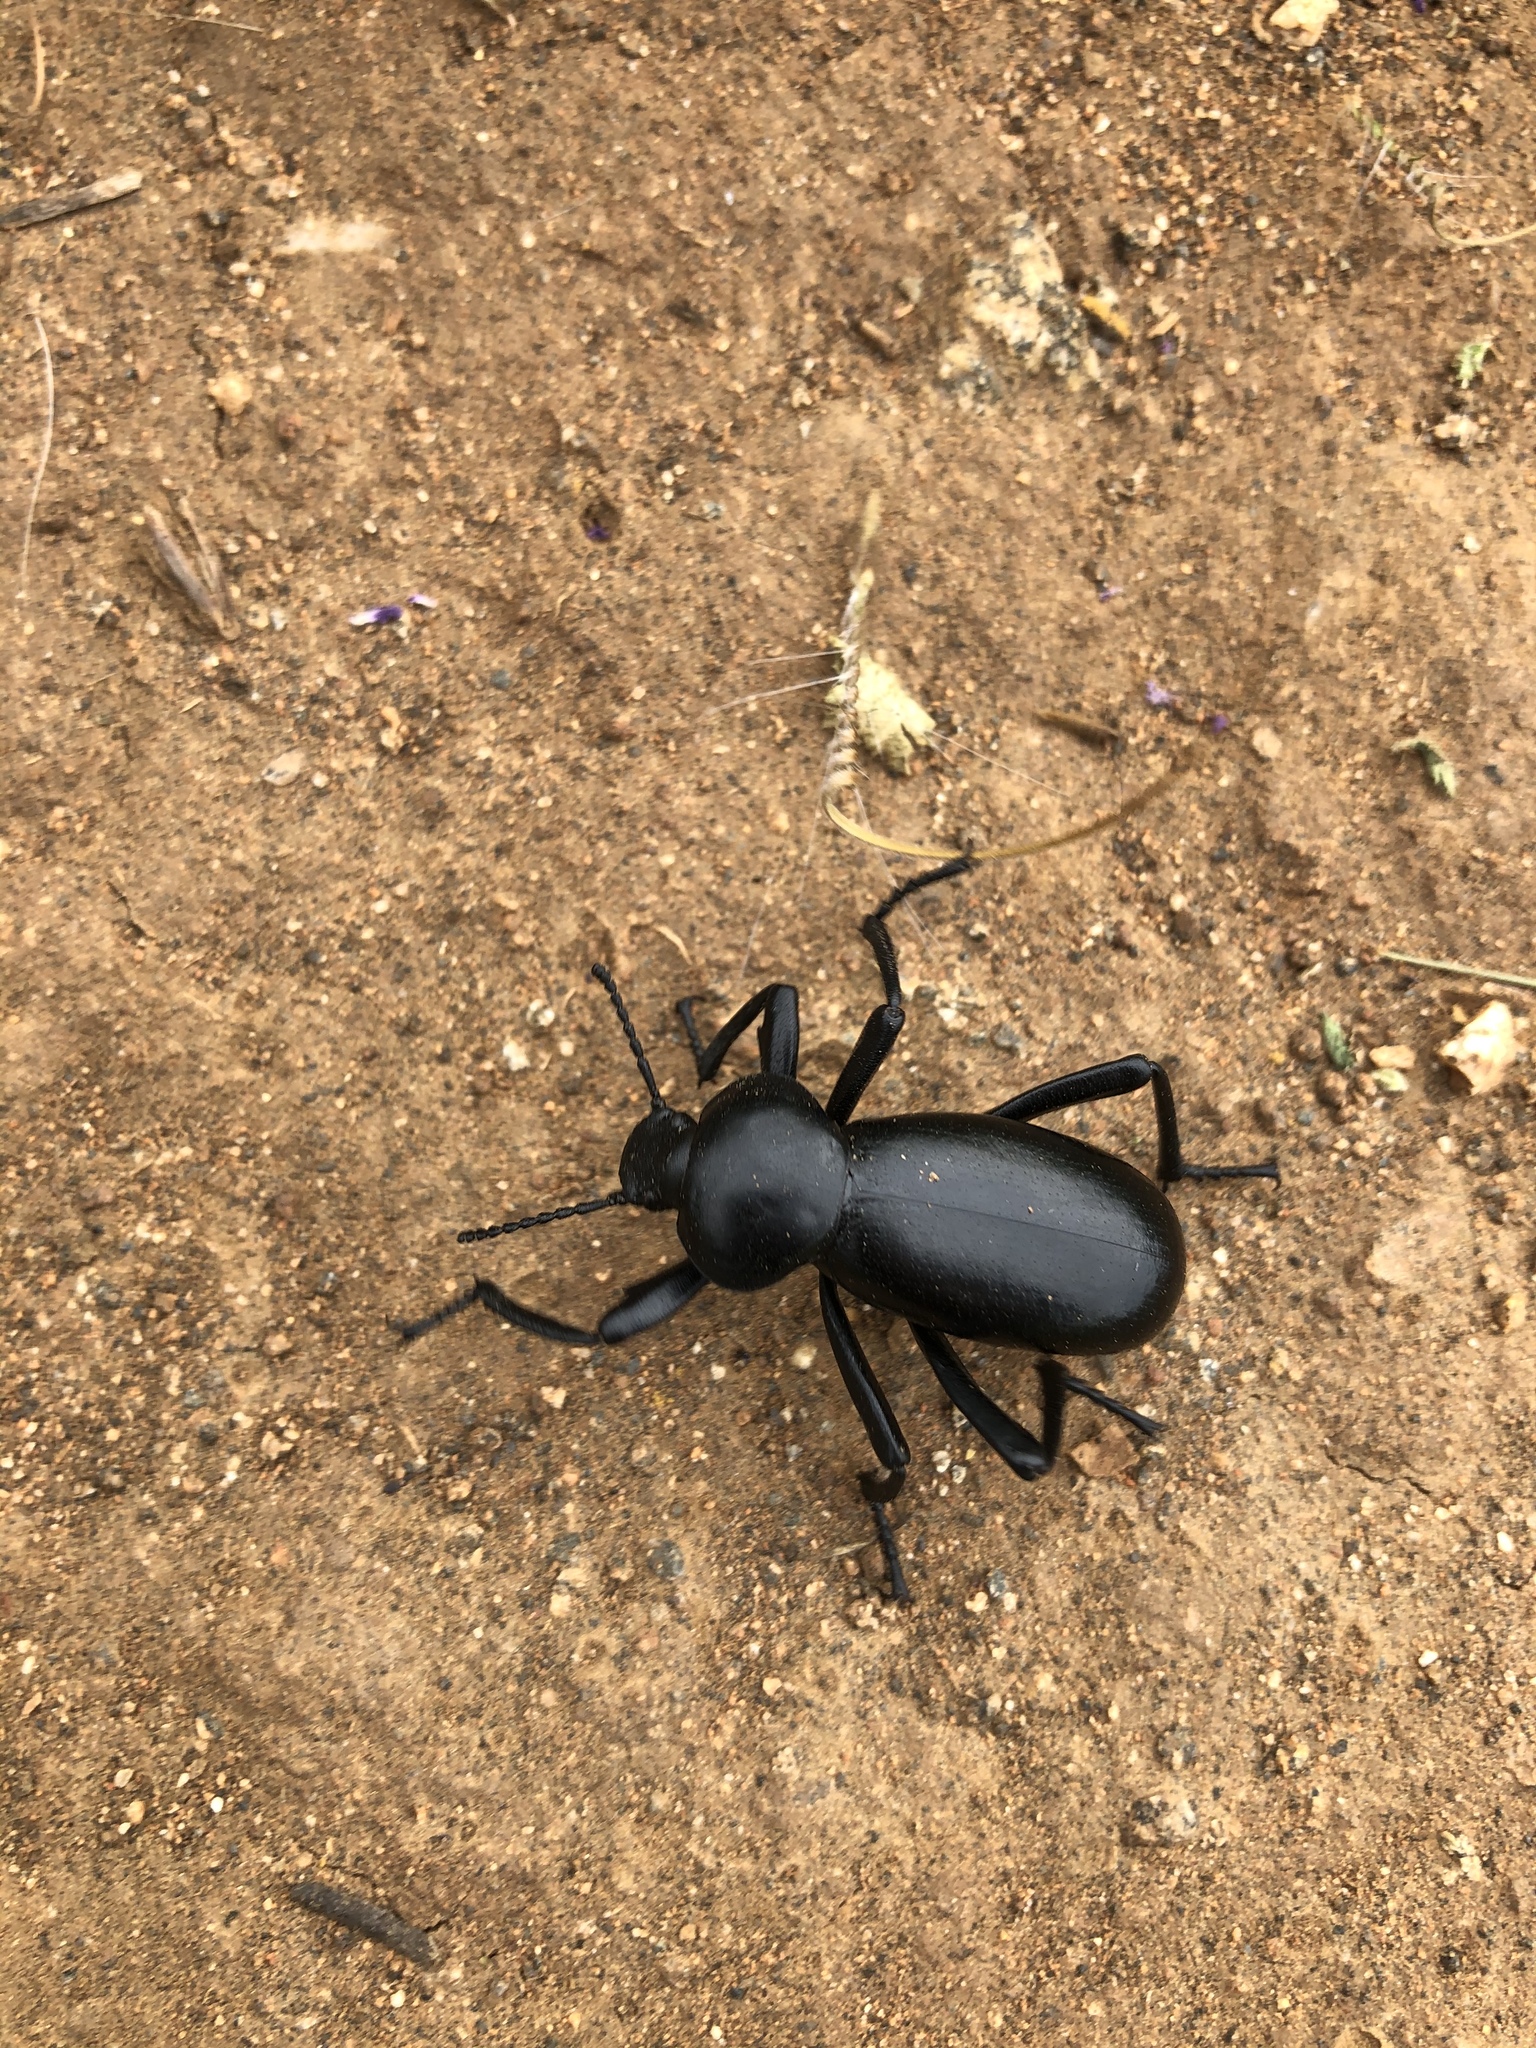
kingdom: Animalia
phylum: Arthropoda
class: Insecta
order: Coleoptera
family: Tenebrionidae
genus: Eleodes
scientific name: Eleodes grandicollis
